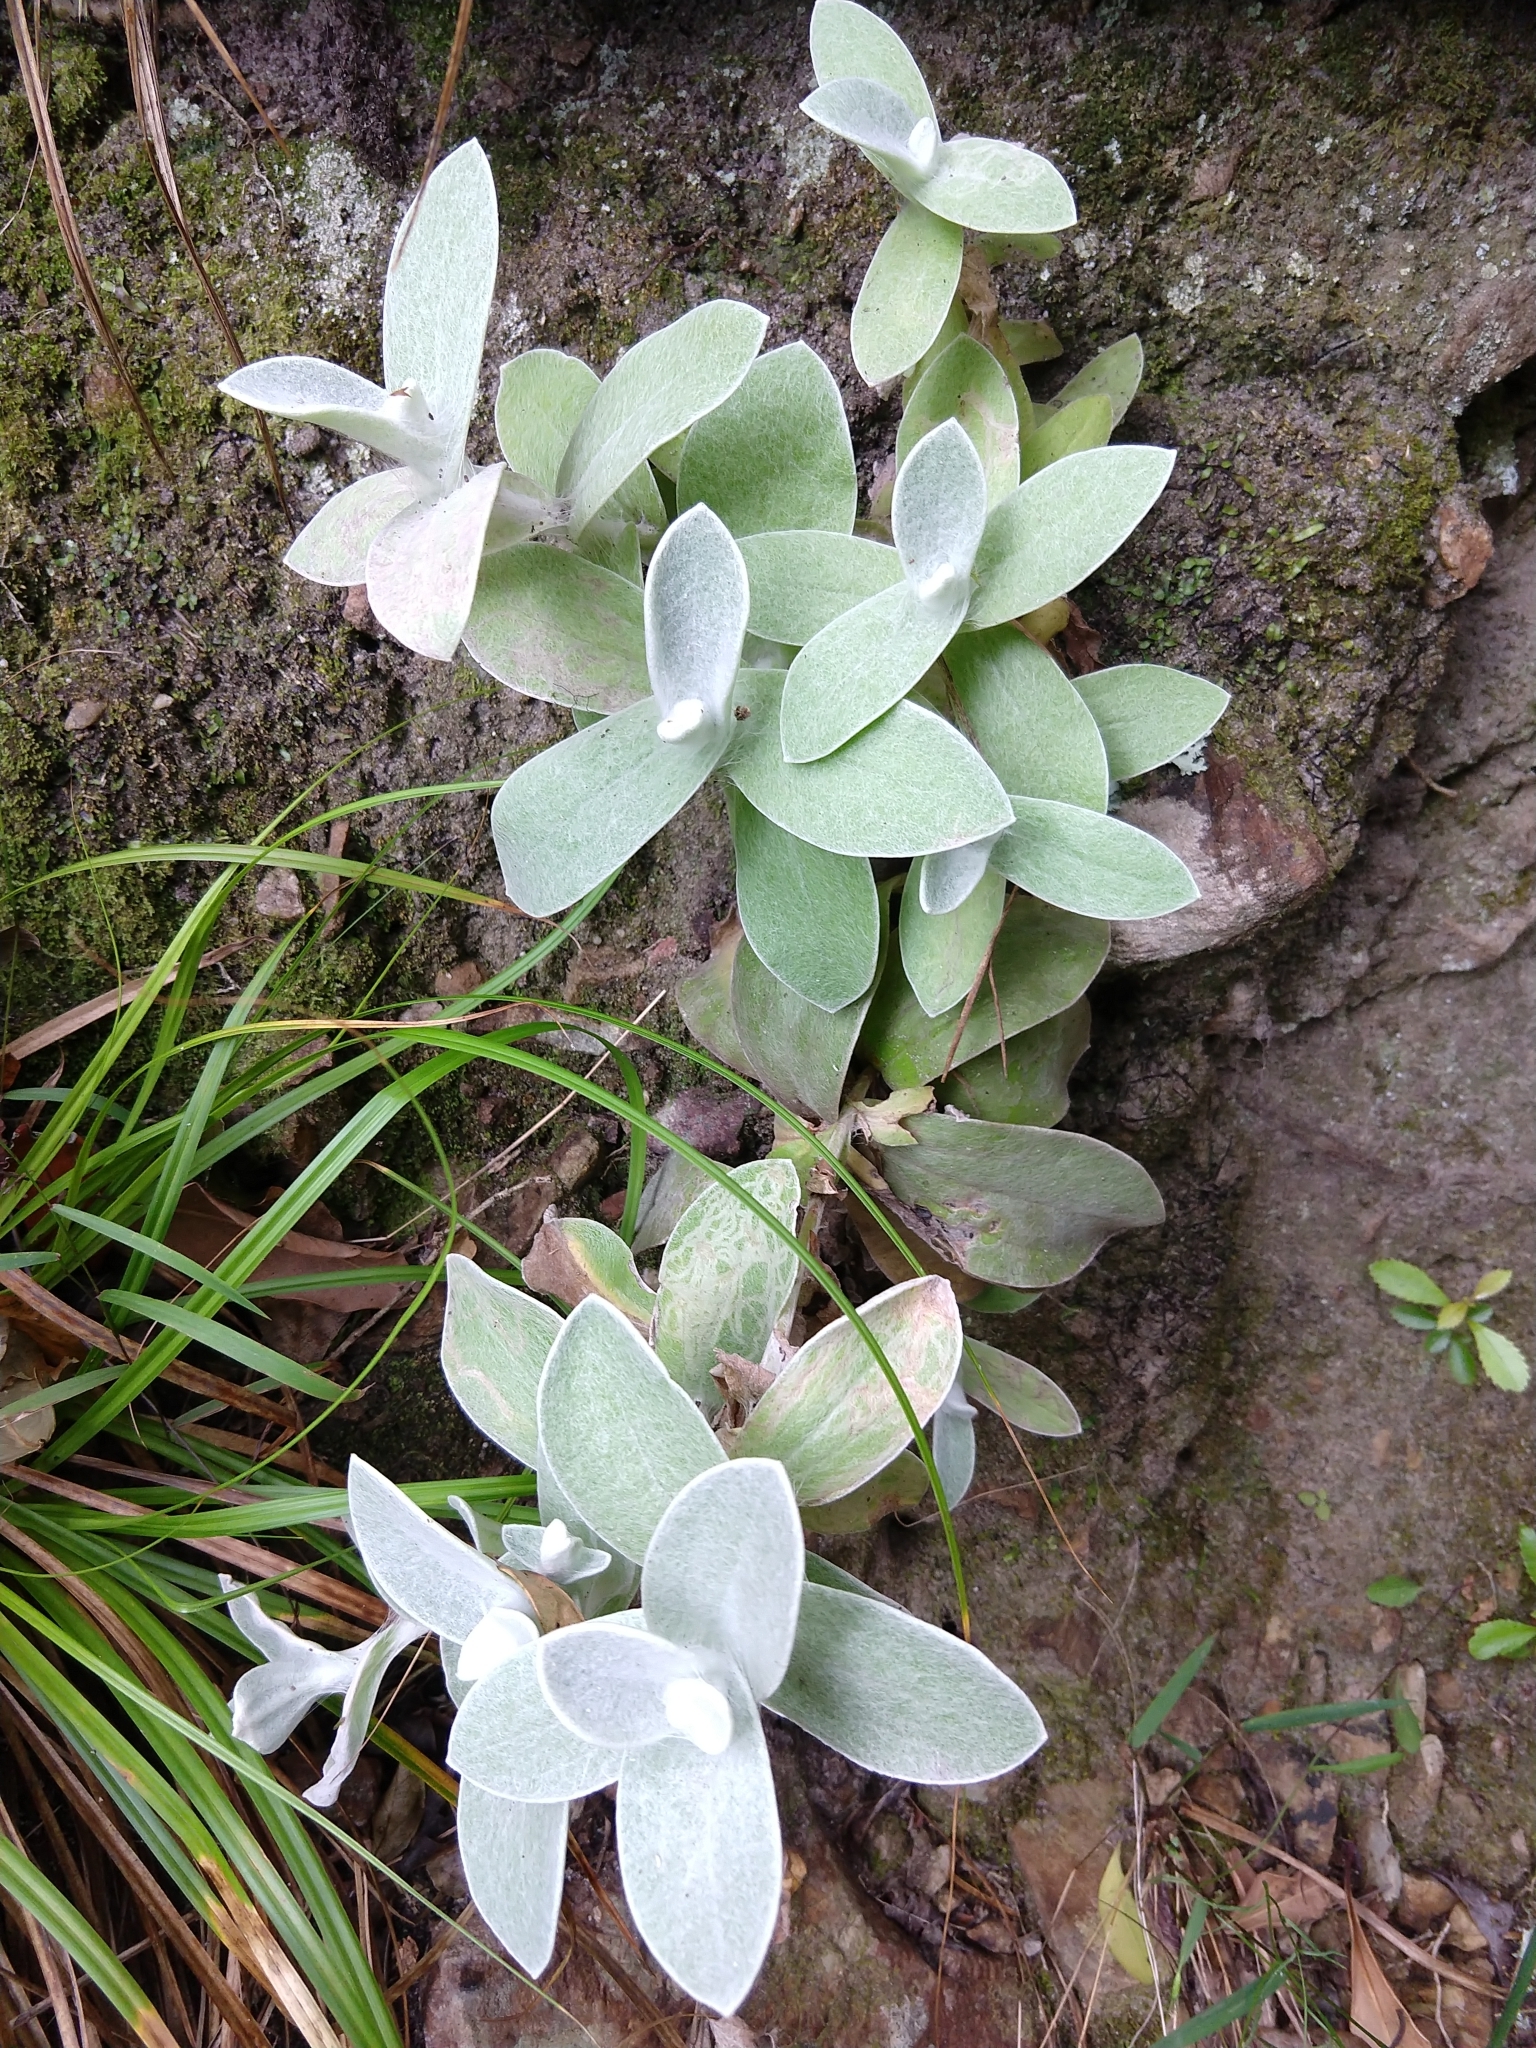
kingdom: Plantae
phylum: Tracheophyta
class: Magnoliopsida
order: Asterales
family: Asteraceae
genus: Helichrysum
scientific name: Helichrysum grandiflorum
